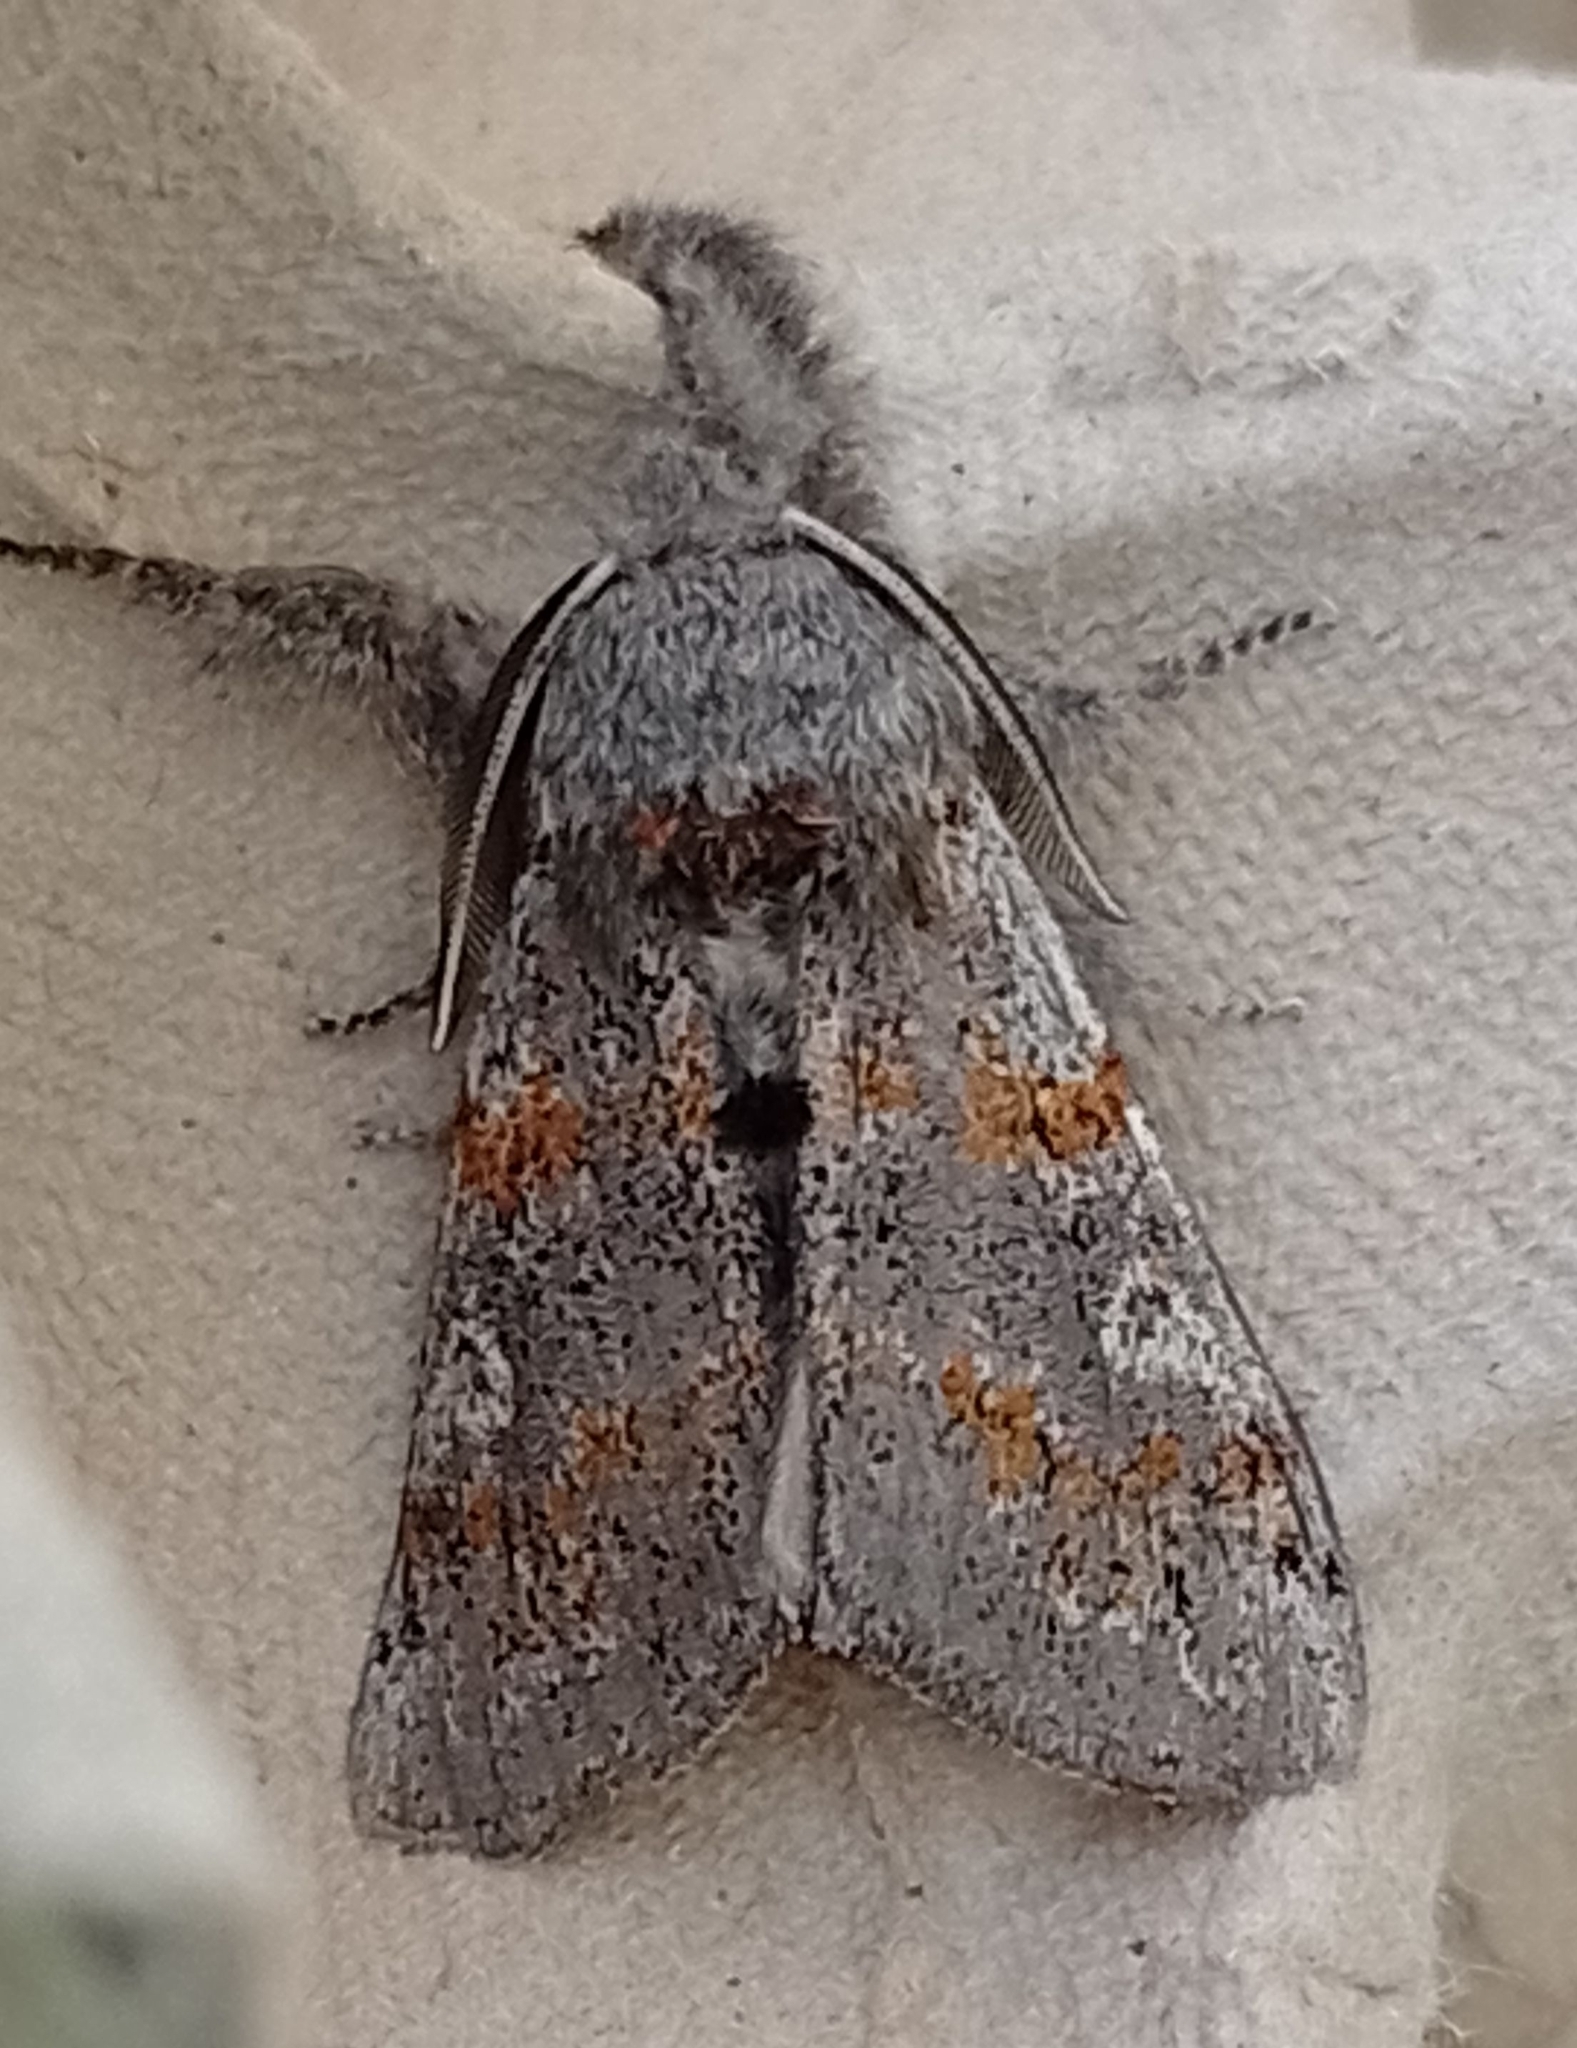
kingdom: Animalia
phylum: Arthropoda
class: Insecta
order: Lepidoptera
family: Erebidae
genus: Calliteara
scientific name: Calliteara Dicallomera fascelina
